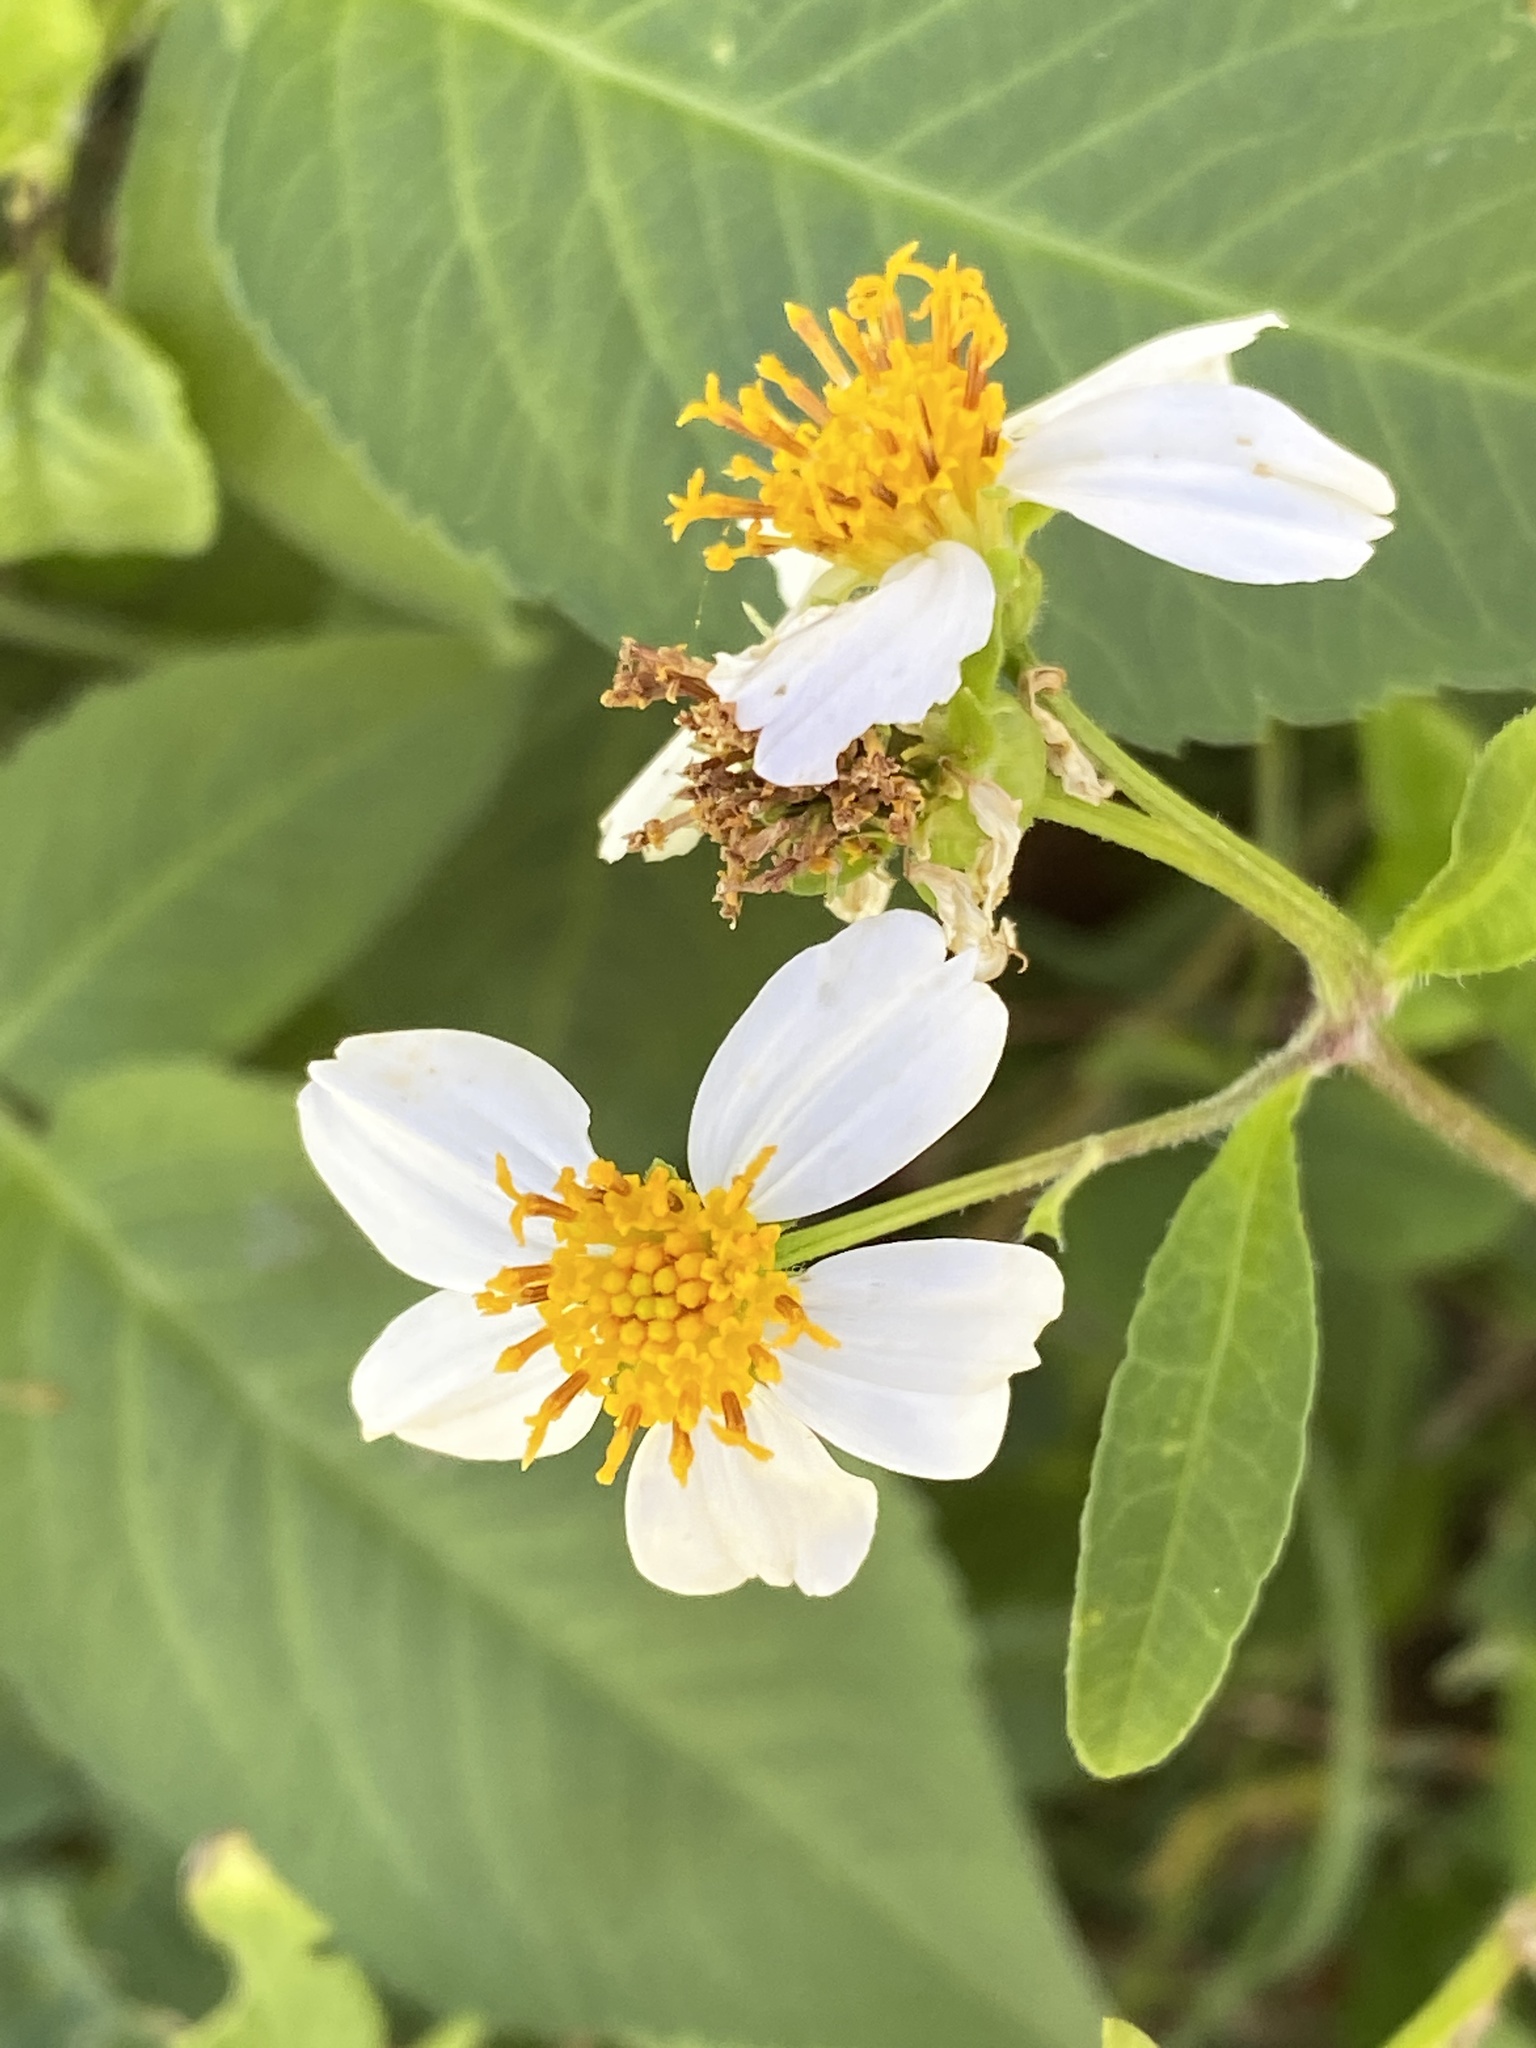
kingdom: Plantae
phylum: Tracheophyta
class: Magnoliopsida
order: Asterales
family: Asteraceae
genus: Bidens
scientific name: Bidens alba
